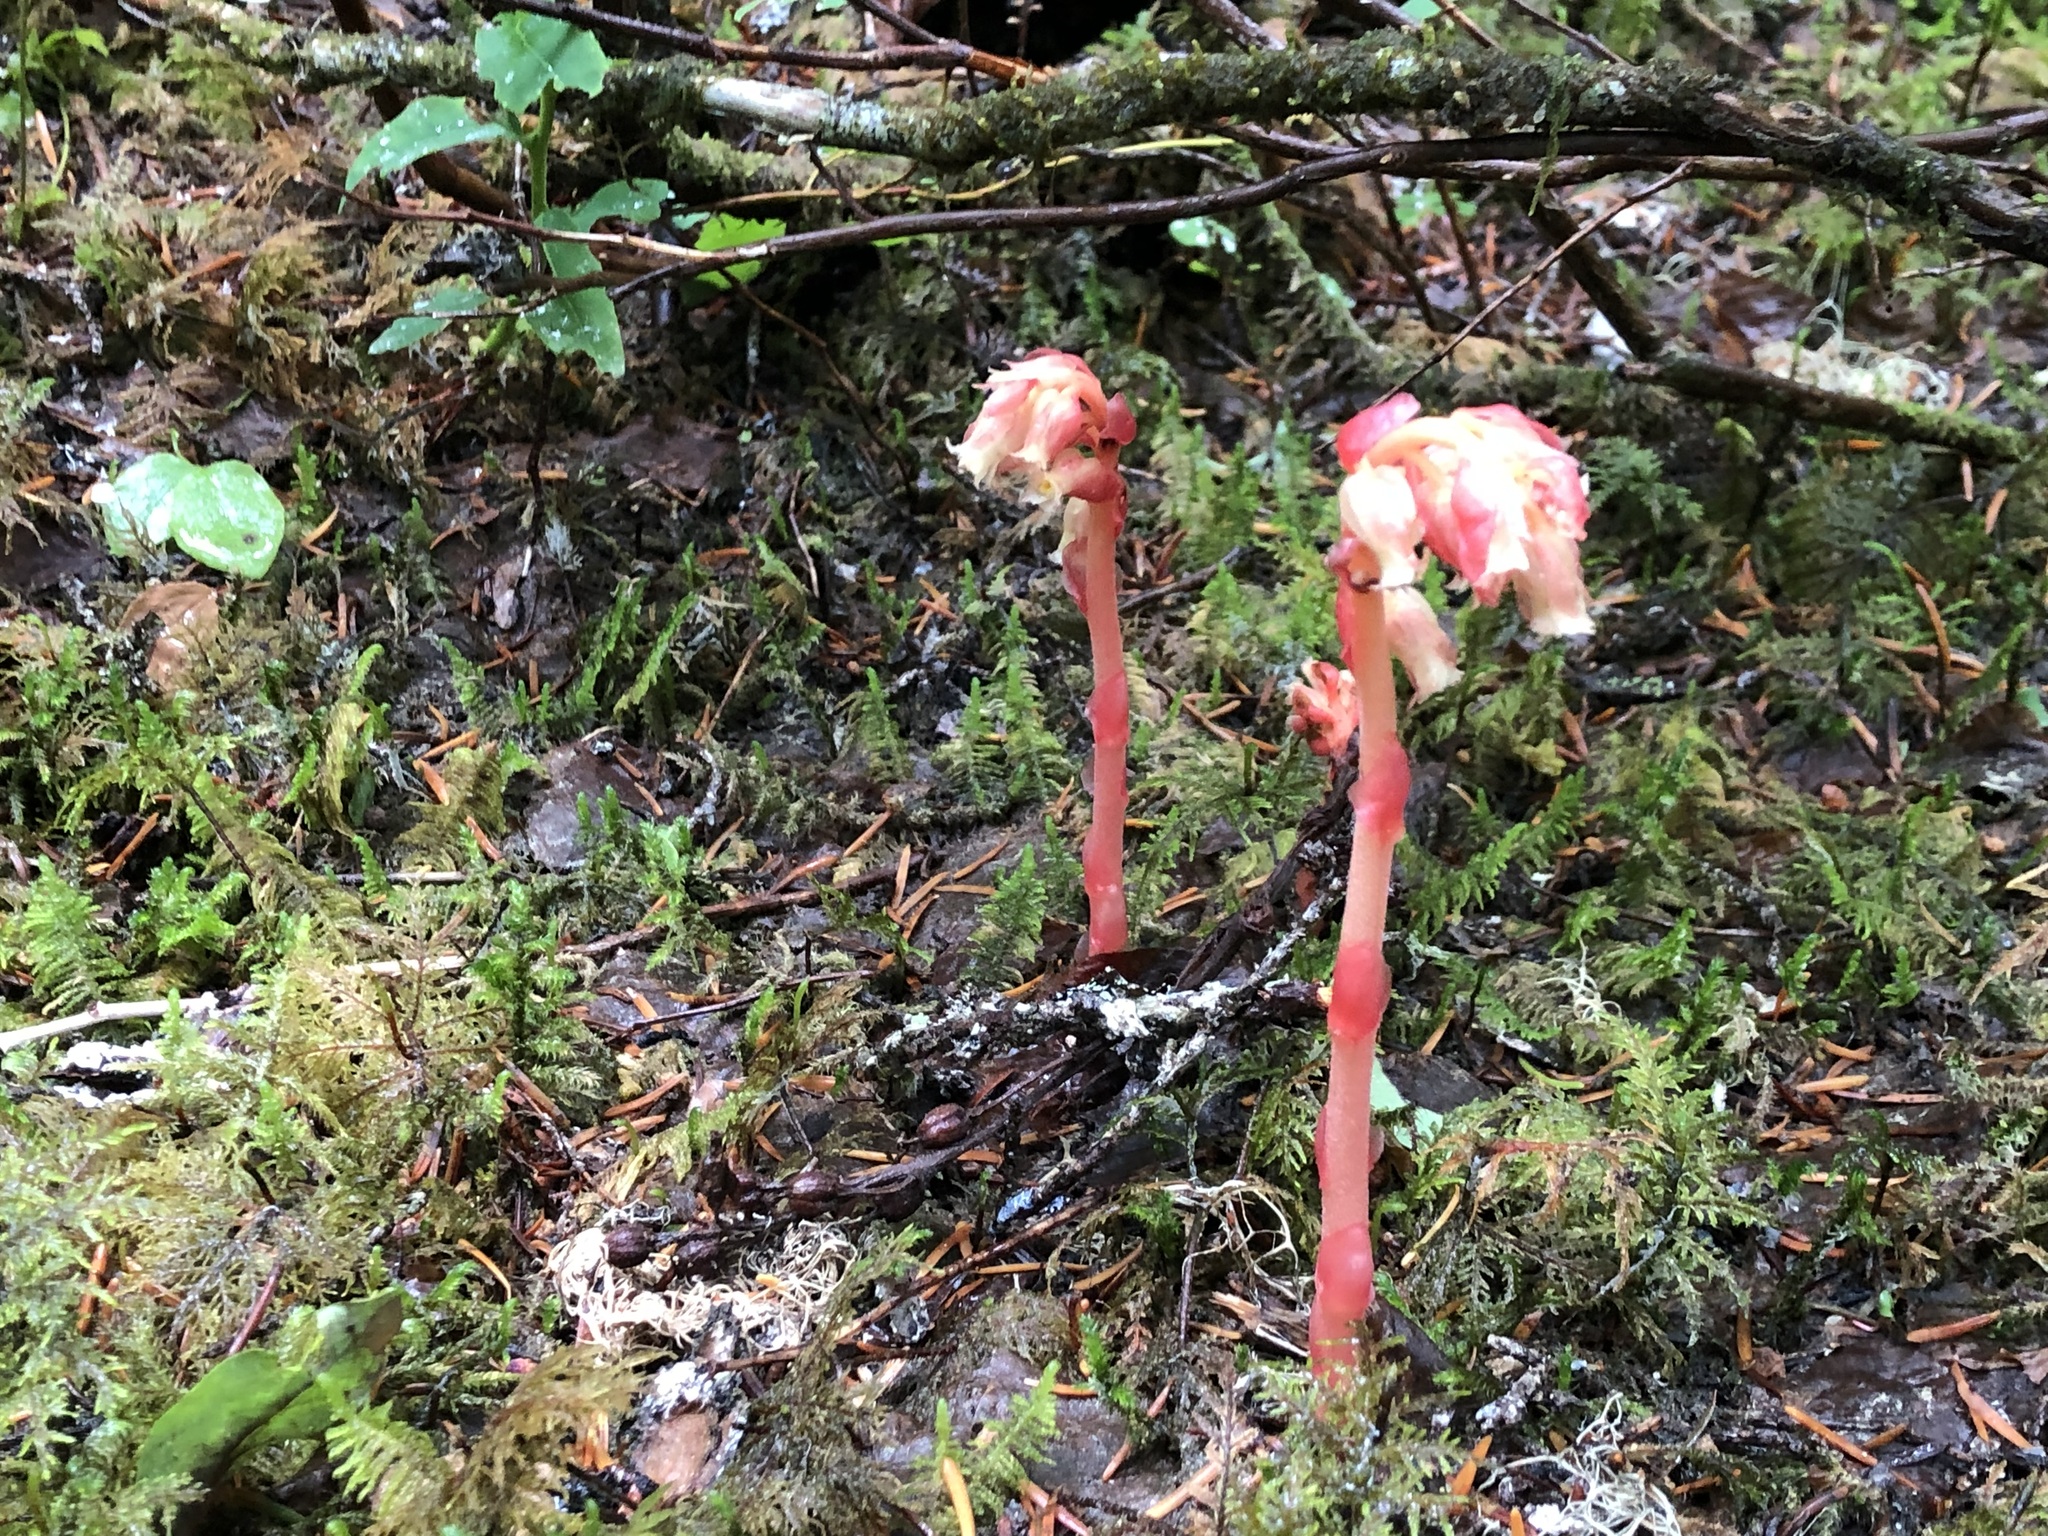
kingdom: Plantae
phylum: Tracheophyta
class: Magnoliopsida
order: Ericales
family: Ericaceae
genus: Hypopitys
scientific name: Hypopitys monotropa
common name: Yellow bird's-nest
